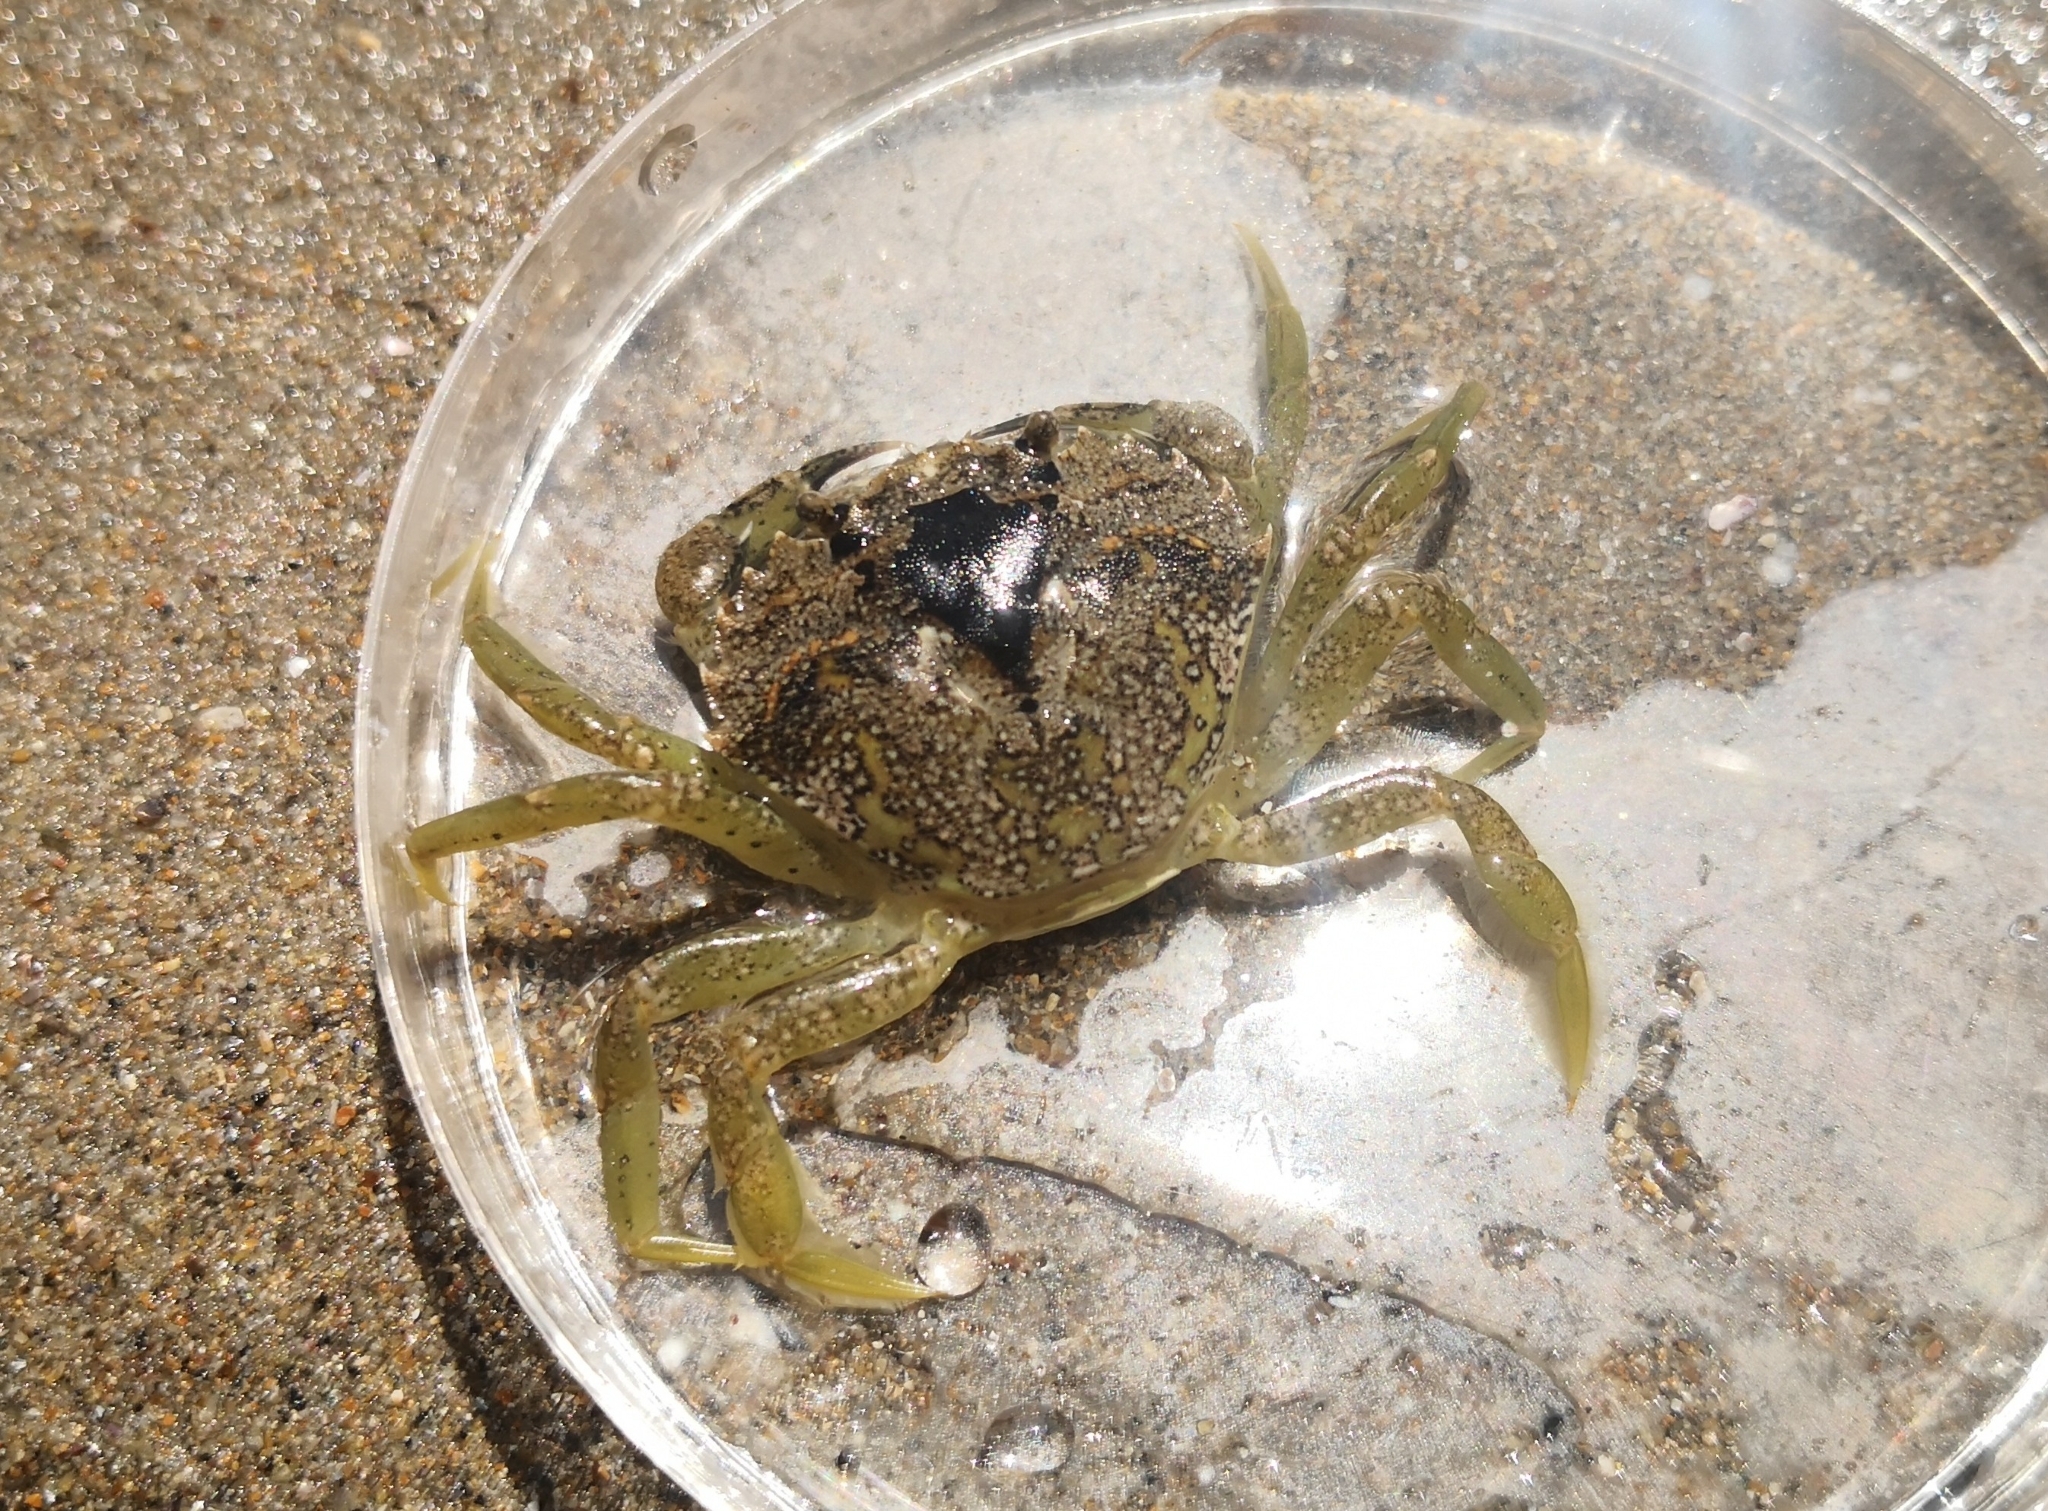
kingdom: Animalia
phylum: Arthropoda
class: Malacostraca
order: Decapoda
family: Carcinidae
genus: Carcinus
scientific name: Carcinus maenas
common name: European green crab
